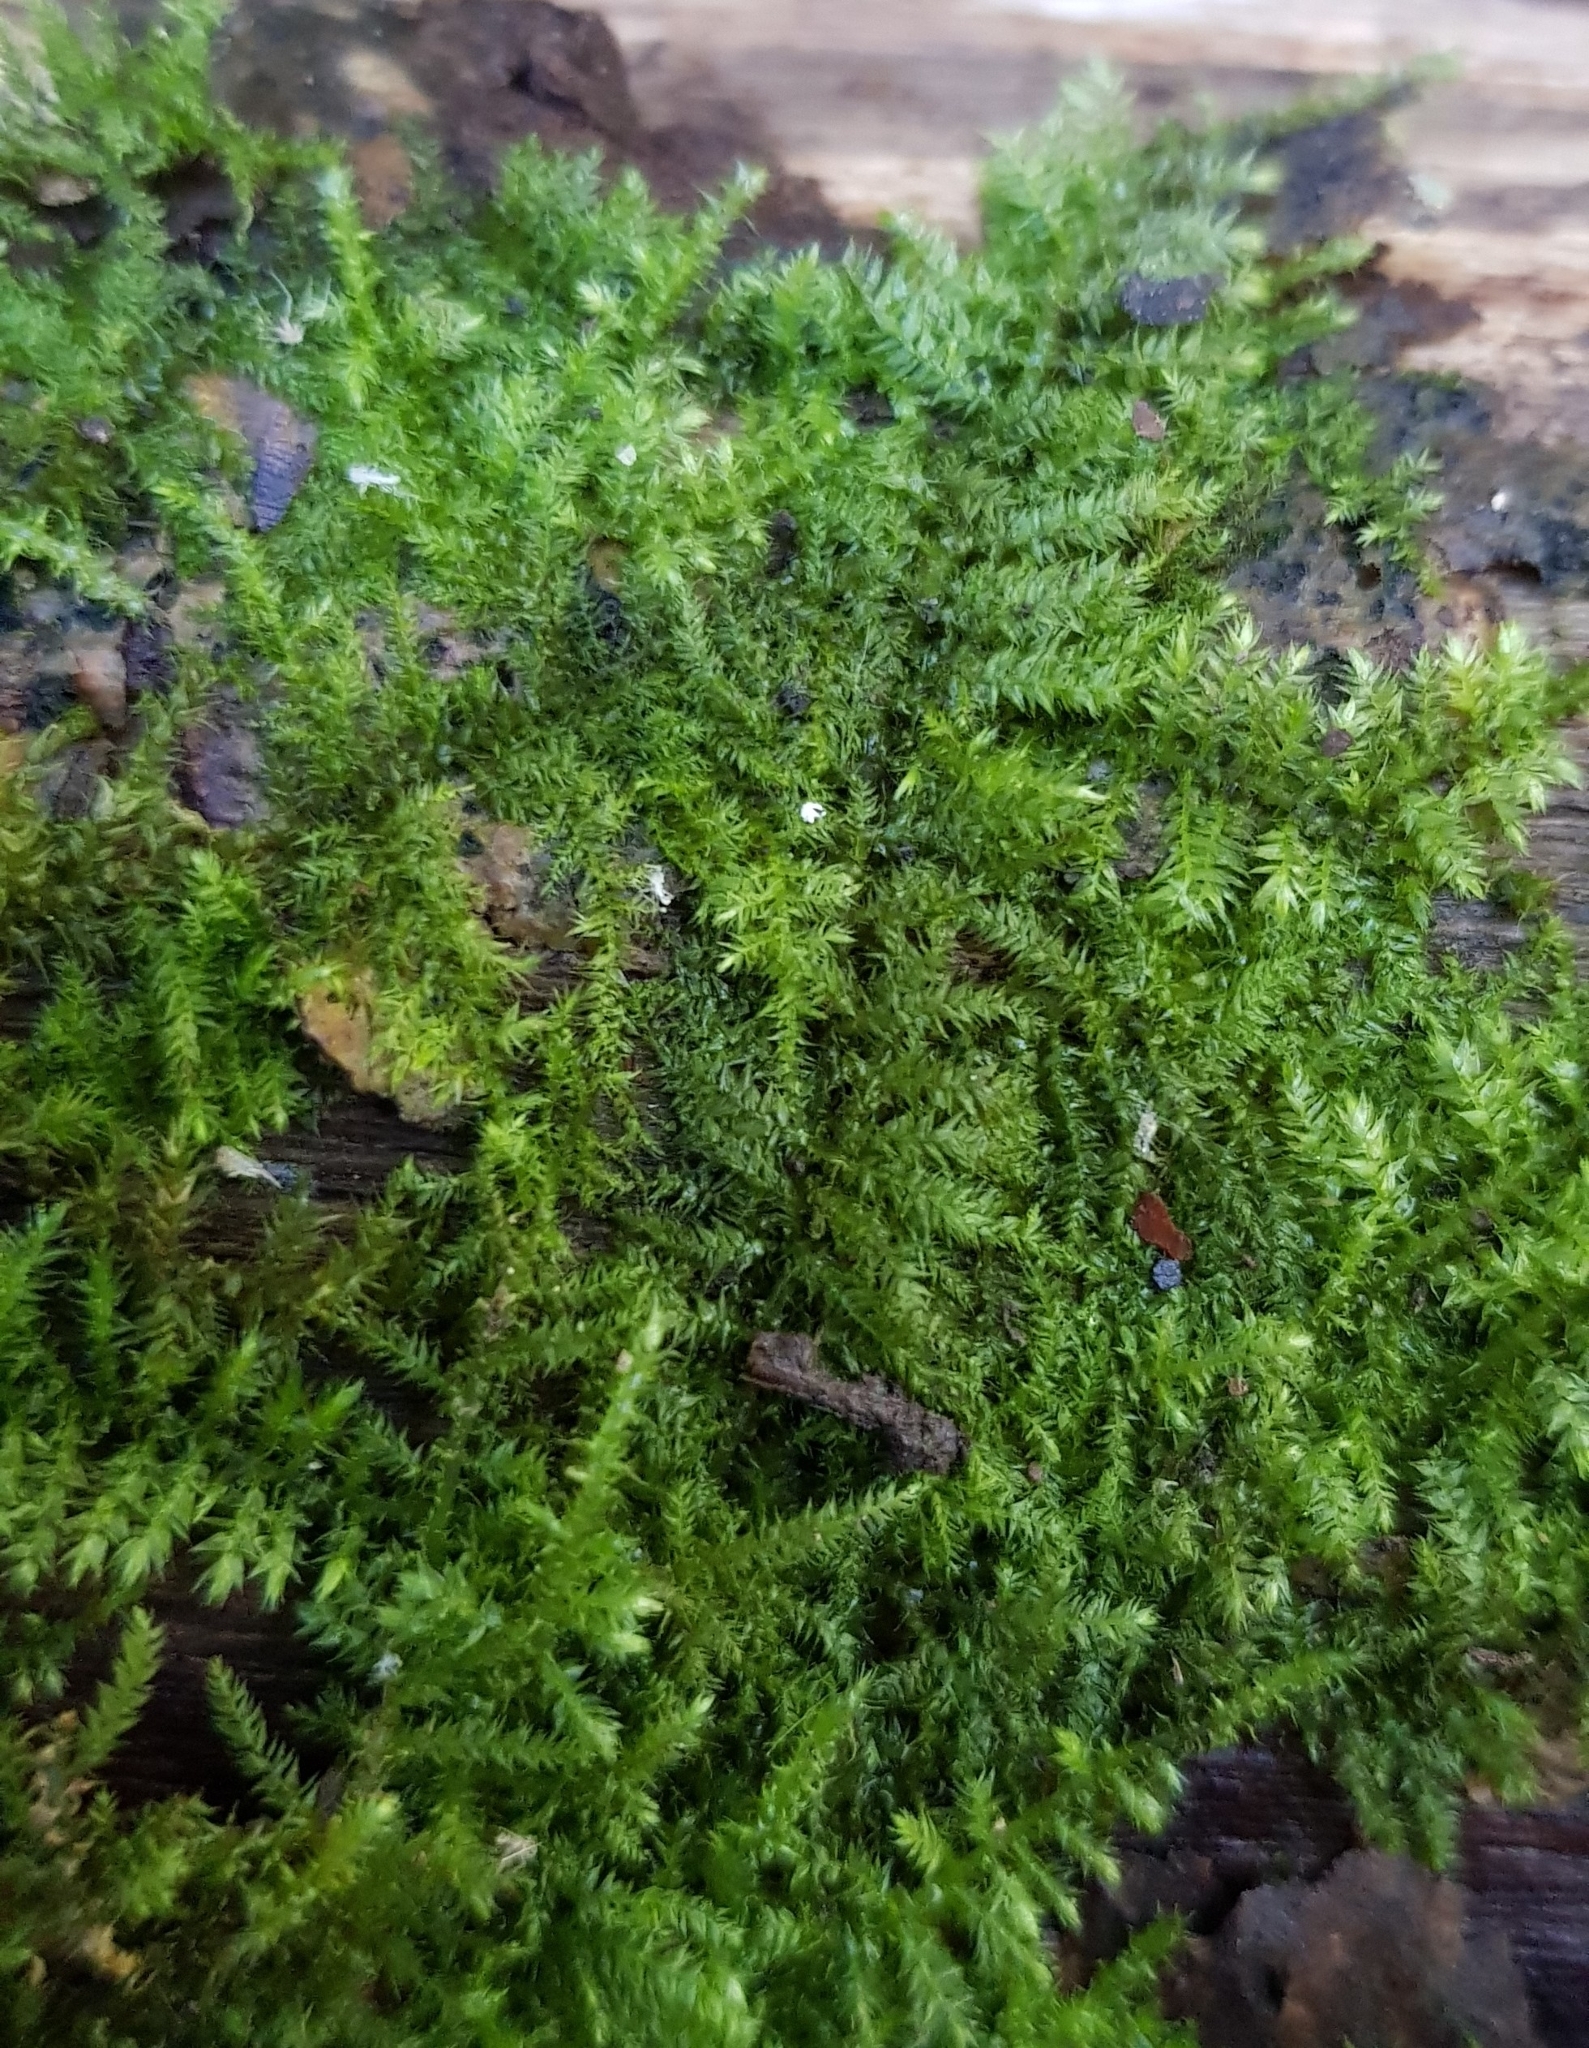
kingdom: Plantae
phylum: Bryophyta
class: Bryopsida
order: Hypnales
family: Brachytheciaceae
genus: Kindbergia
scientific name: Kindbergia praelonga
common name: Slender beaked moss
